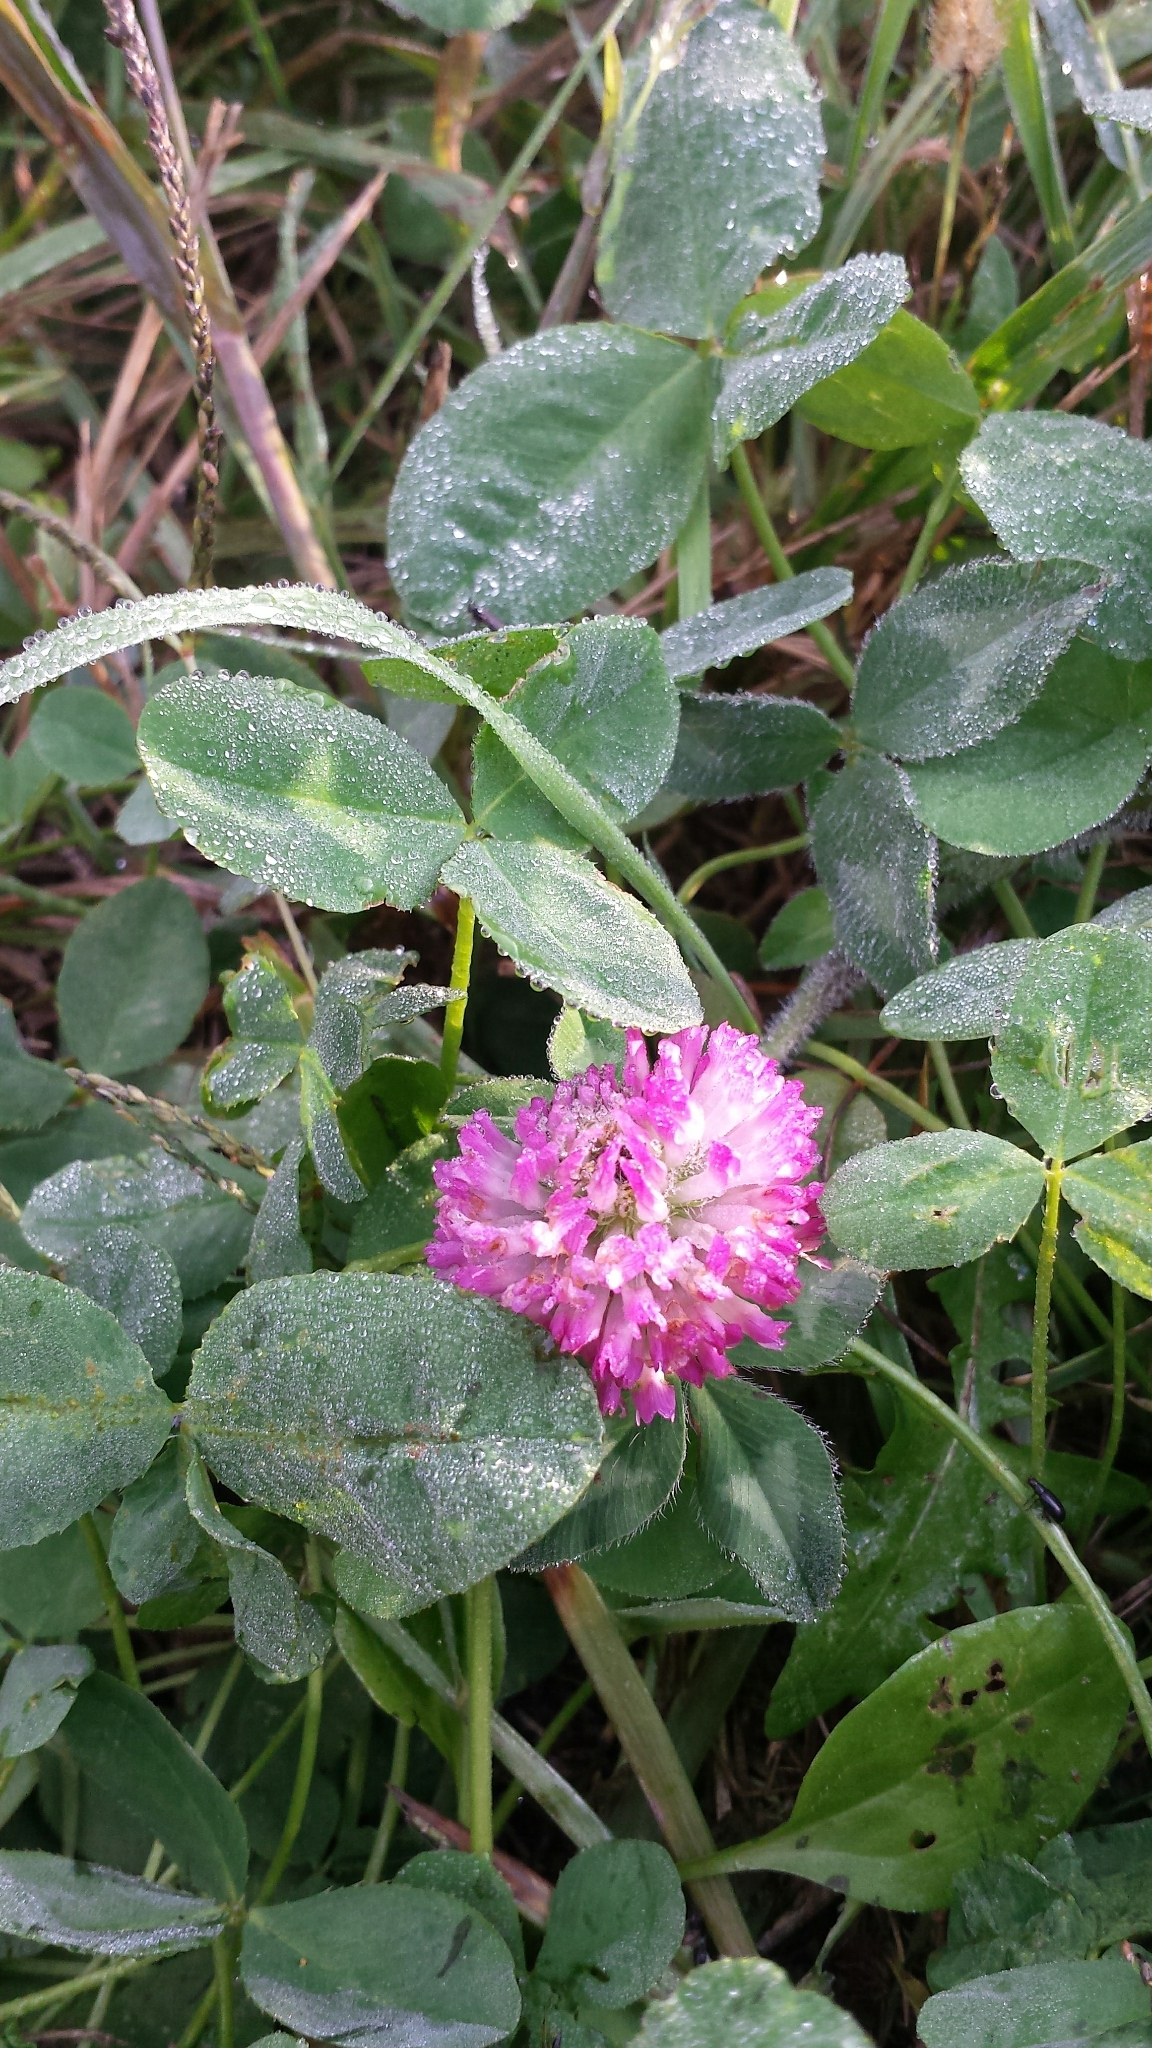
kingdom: Plantae
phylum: Tracheophyta
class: Magnoliopsida
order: Fabales
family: Fabaceae
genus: Trifolium
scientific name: Trifolium pratense
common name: Red clover
